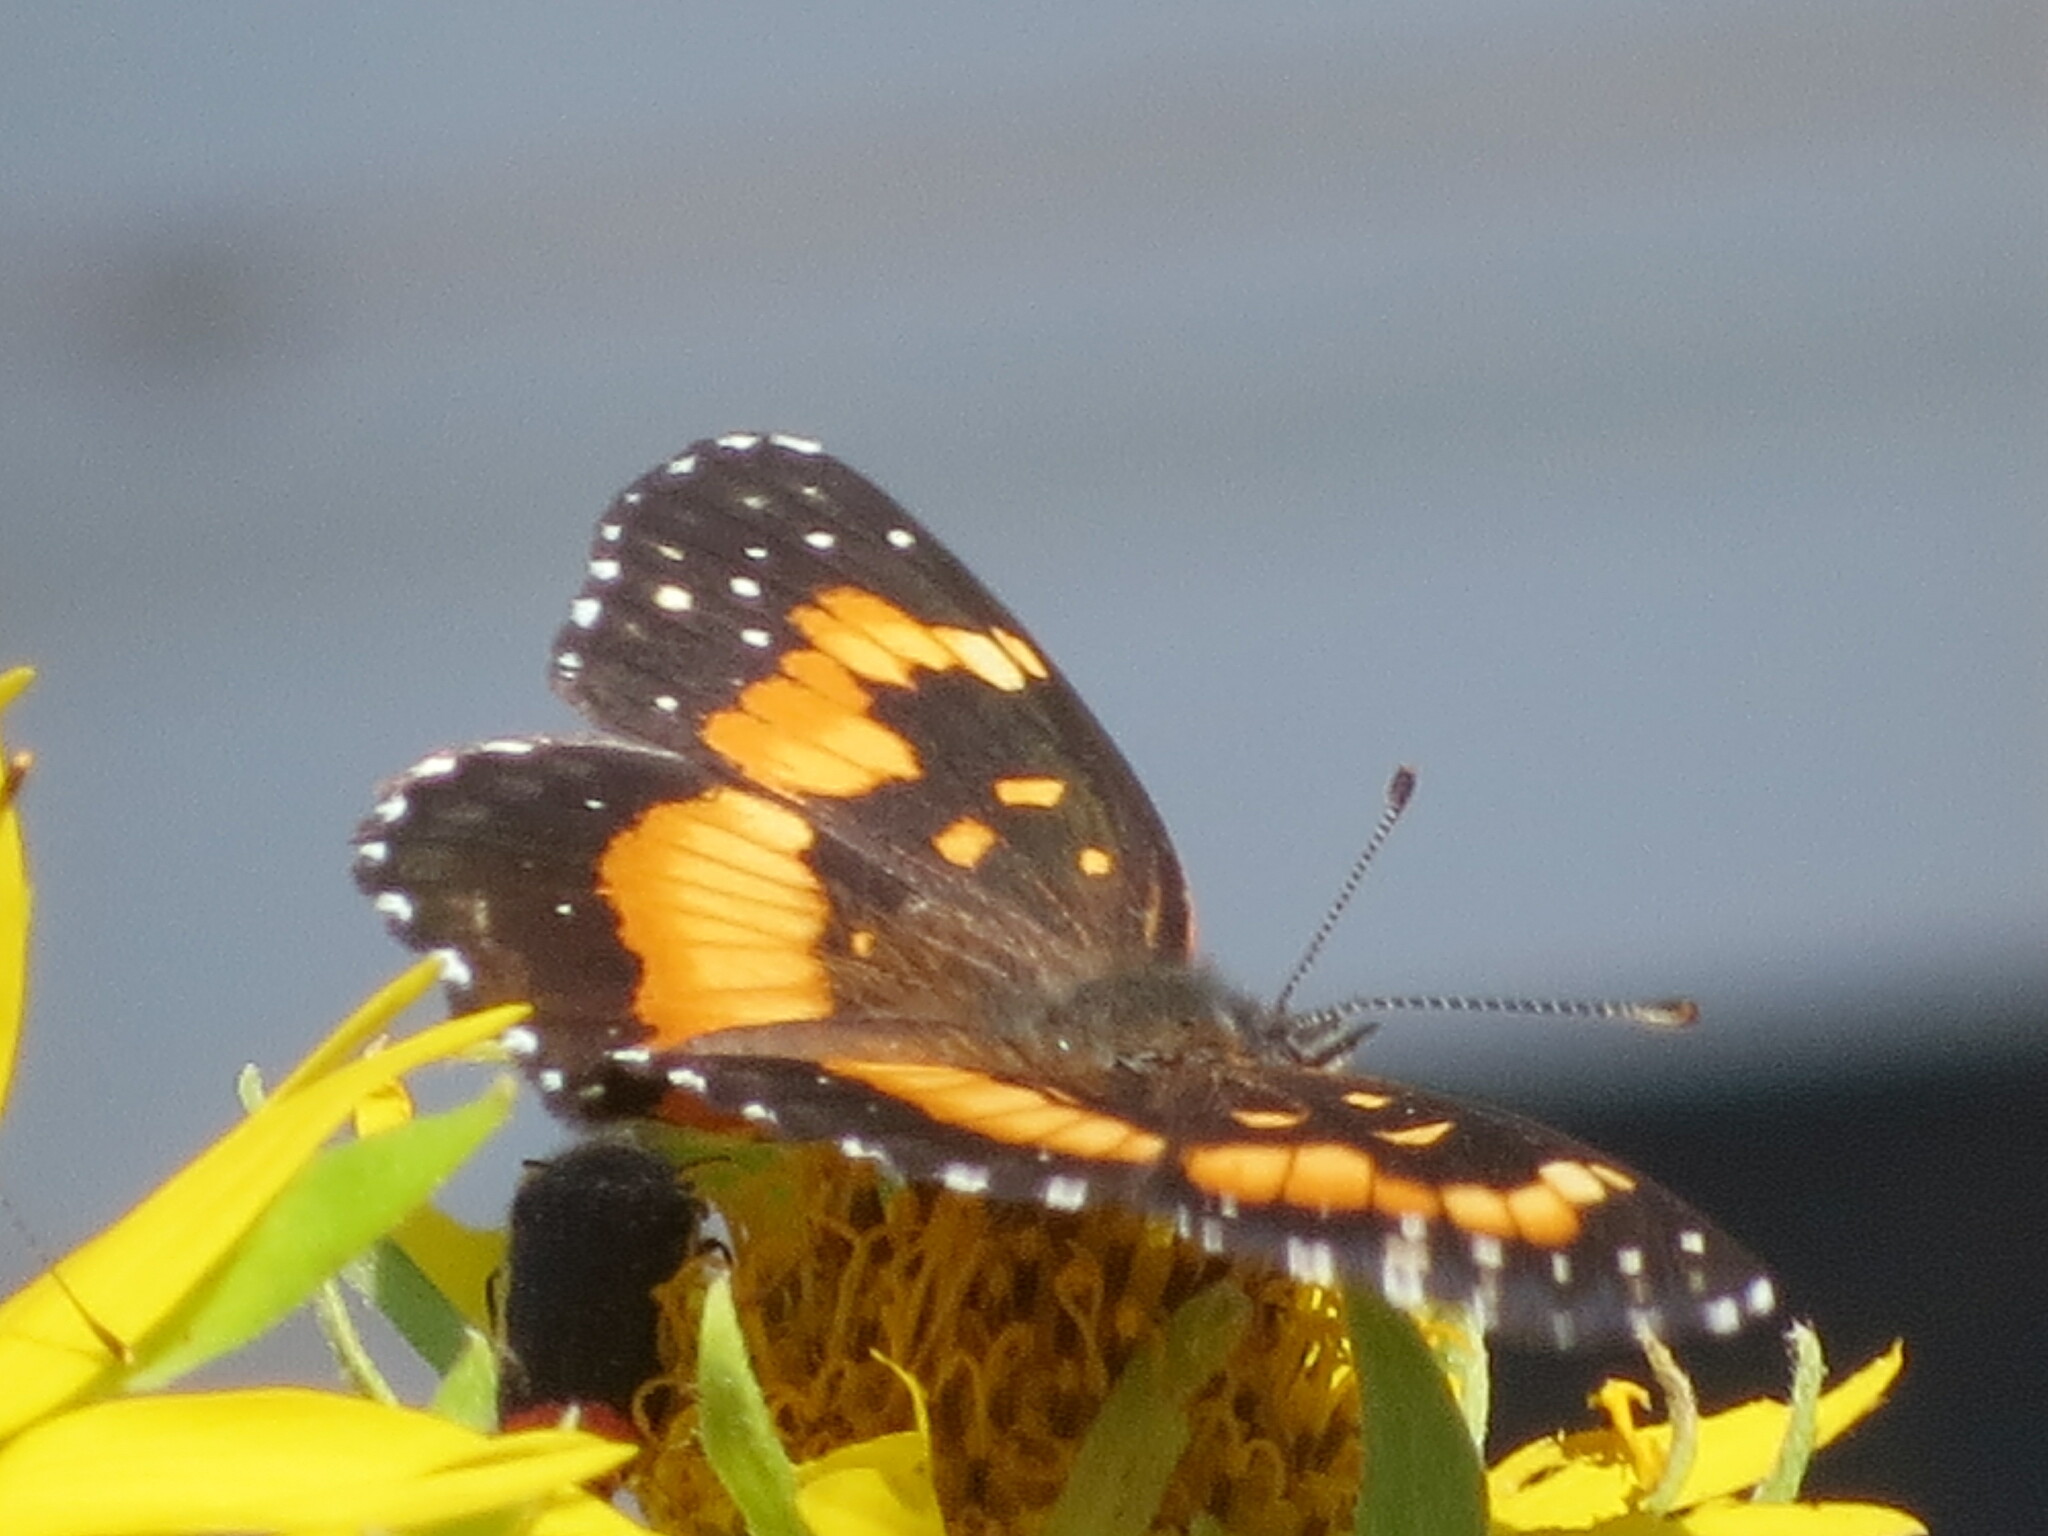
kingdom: Animalia
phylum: Arthropoda
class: Insecta
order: Lepidoptera
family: Nymphalidae
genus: Chlosyne
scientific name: Chlosyne lacinia
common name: Bordered patch
